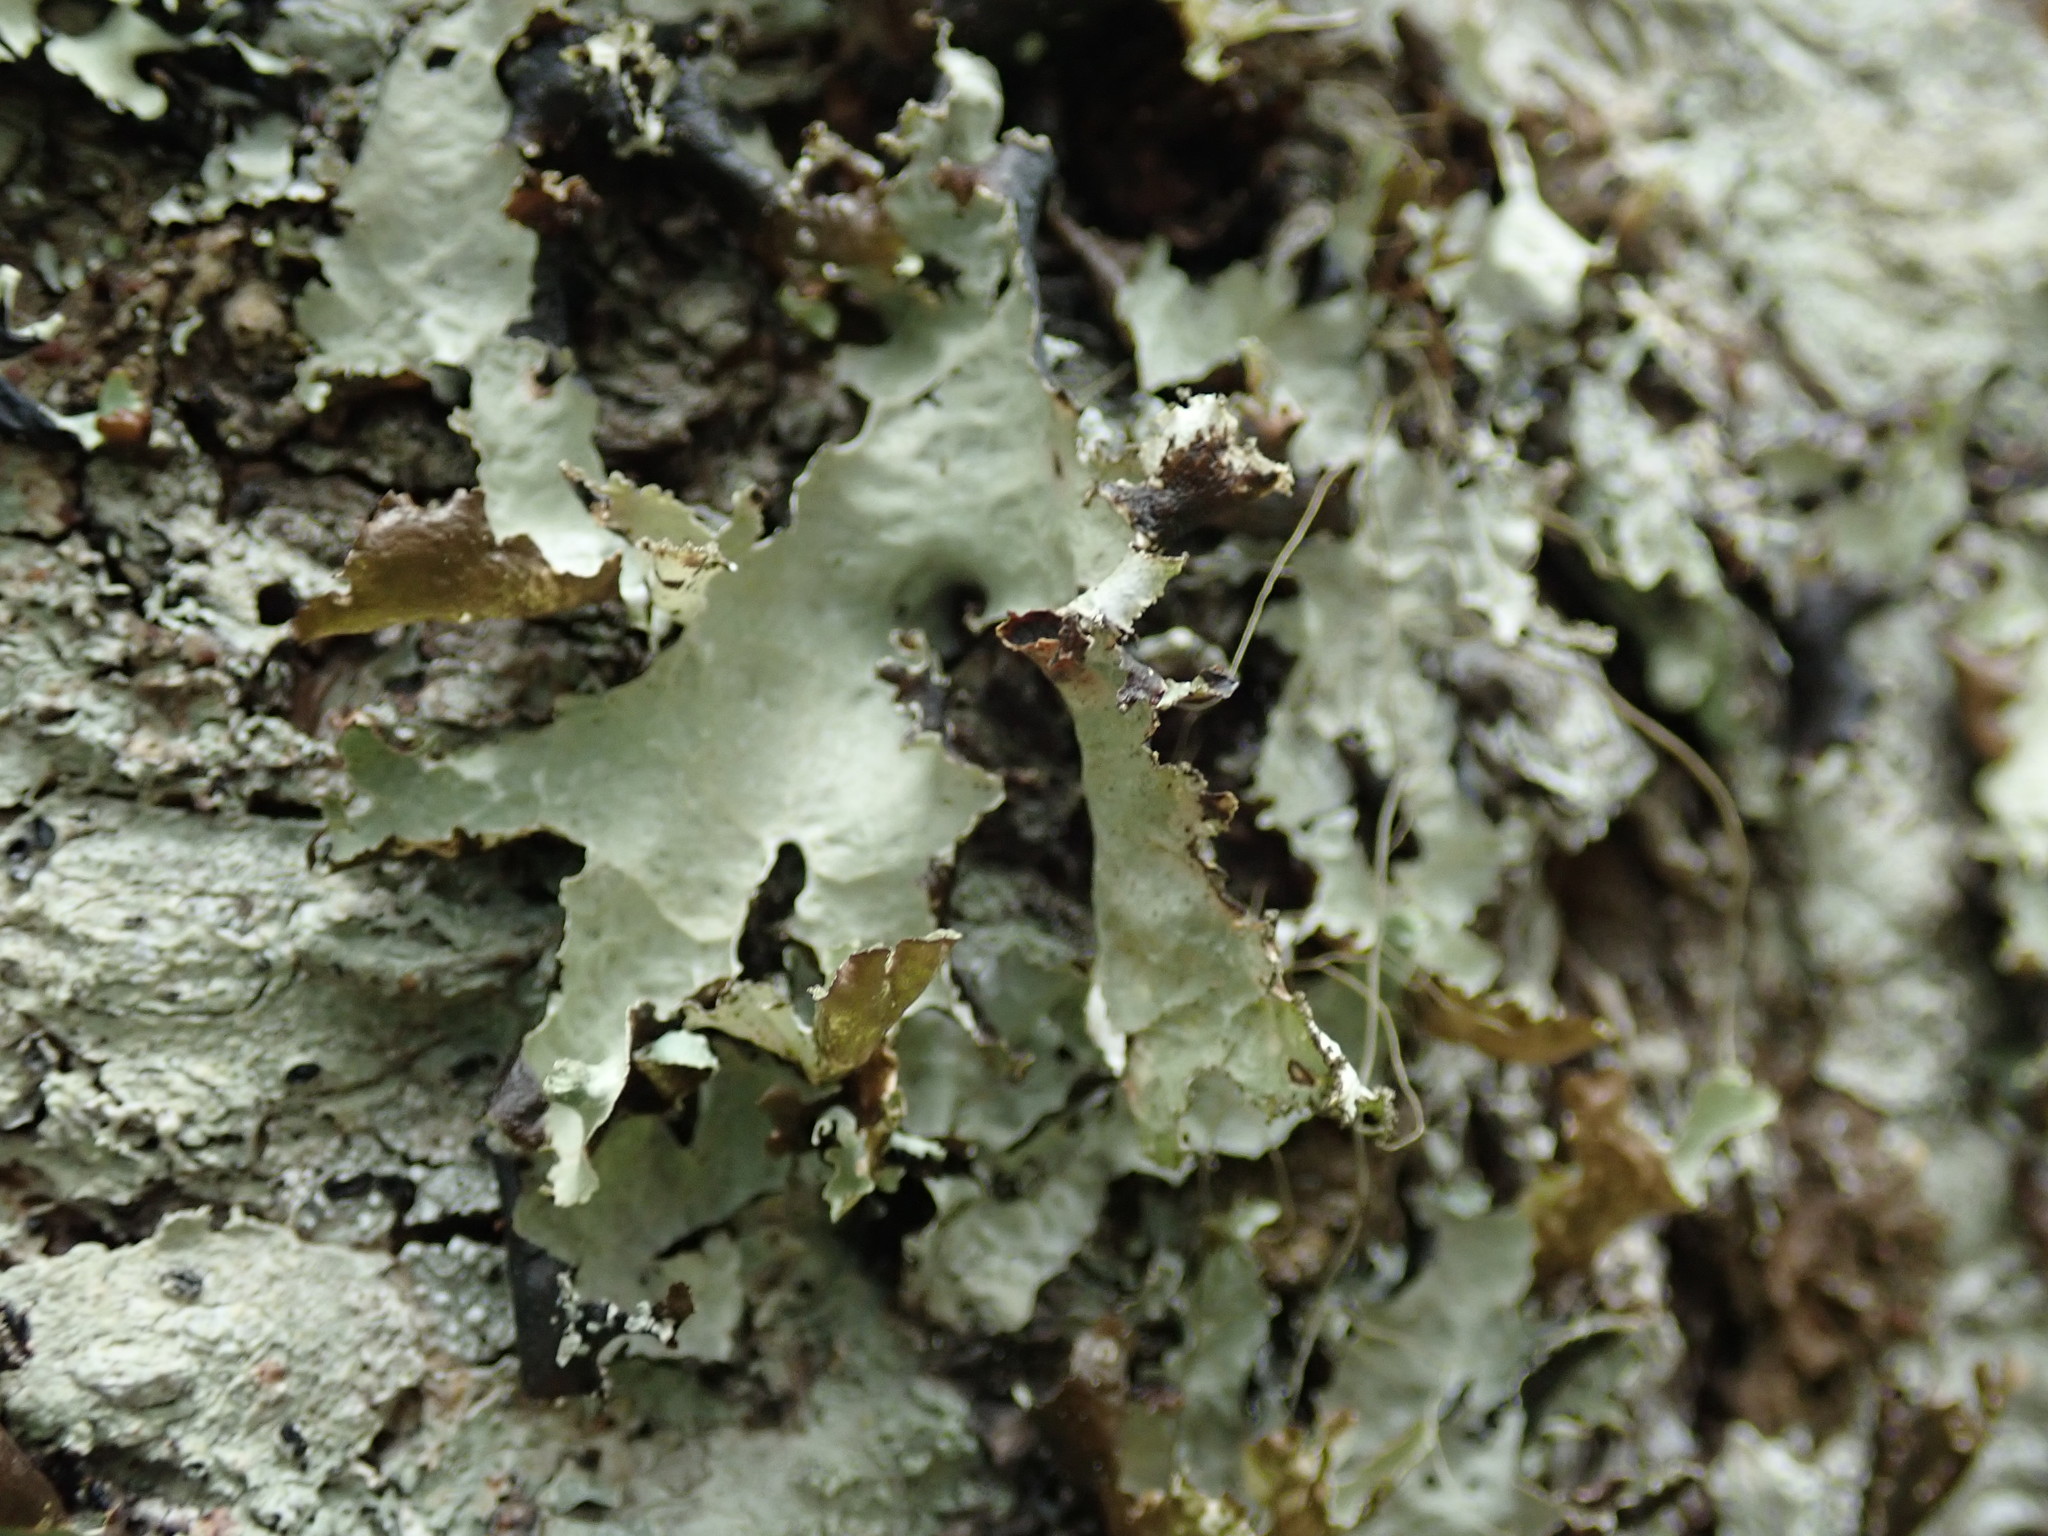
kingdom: Fungi
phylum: Ascomycota
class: Lecanoromycetes
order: Lecanorales
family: Parmeliaceae
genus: Platismatia
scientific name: Platismatia glauca
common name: Varied rag lichen
